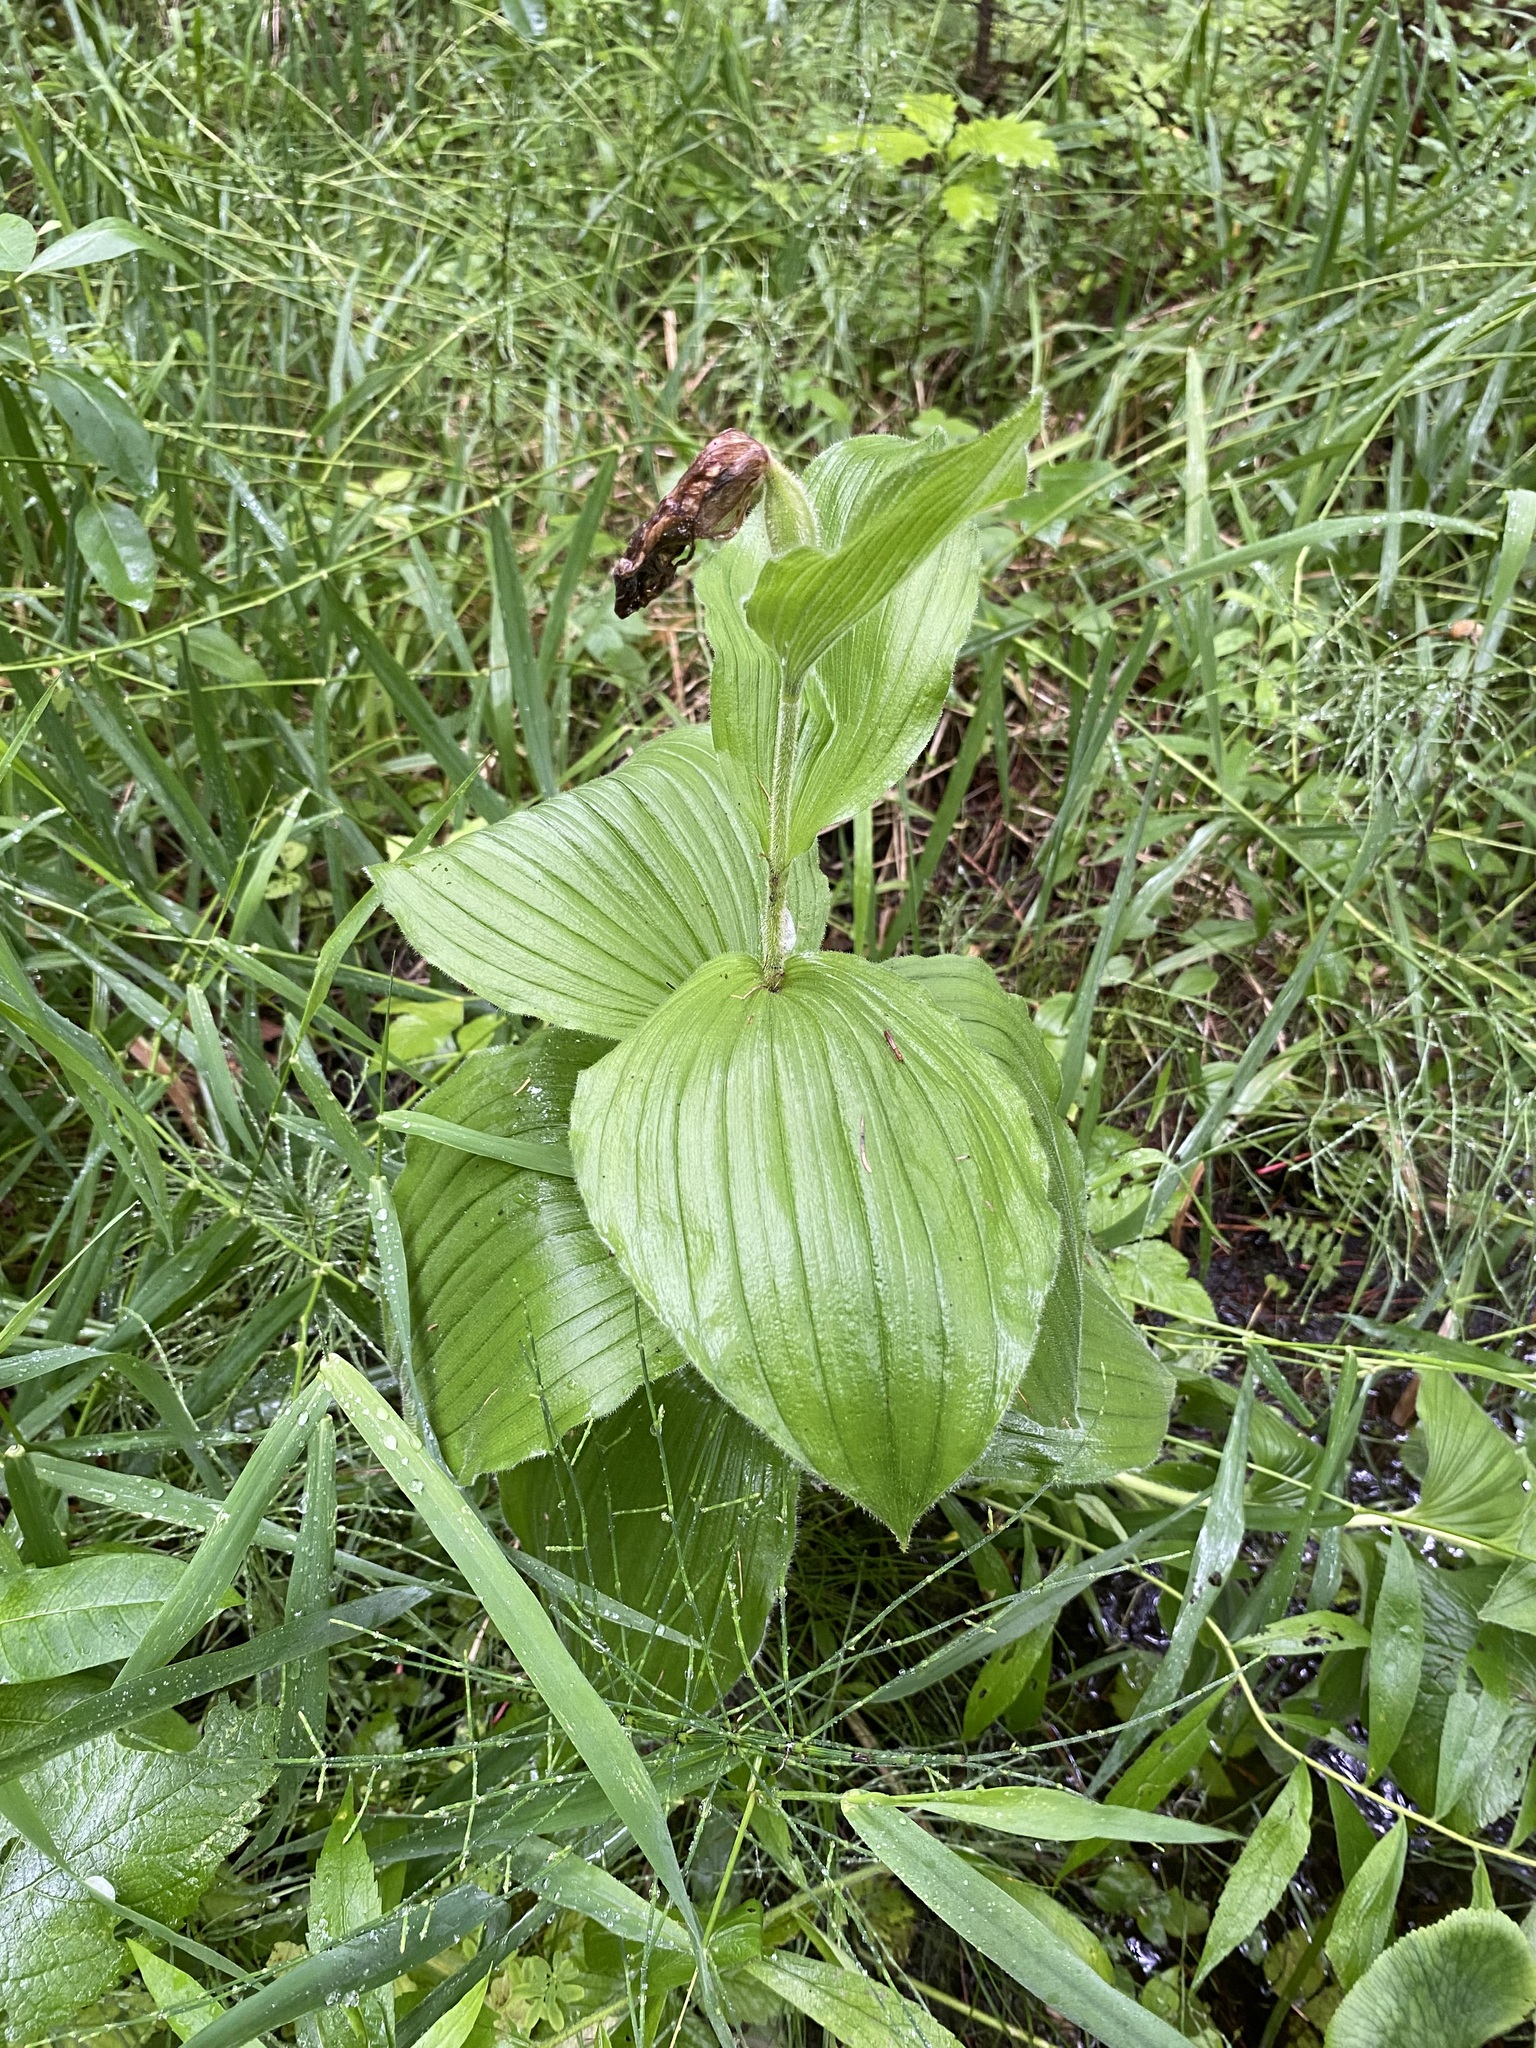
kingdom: Plantae
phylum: Tracheophyta
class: Liliopsida
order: Asparagales
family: Orchidaceae
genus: Cypripedium
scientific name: Cypripedium reginae
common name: Queen lady's-slipper
